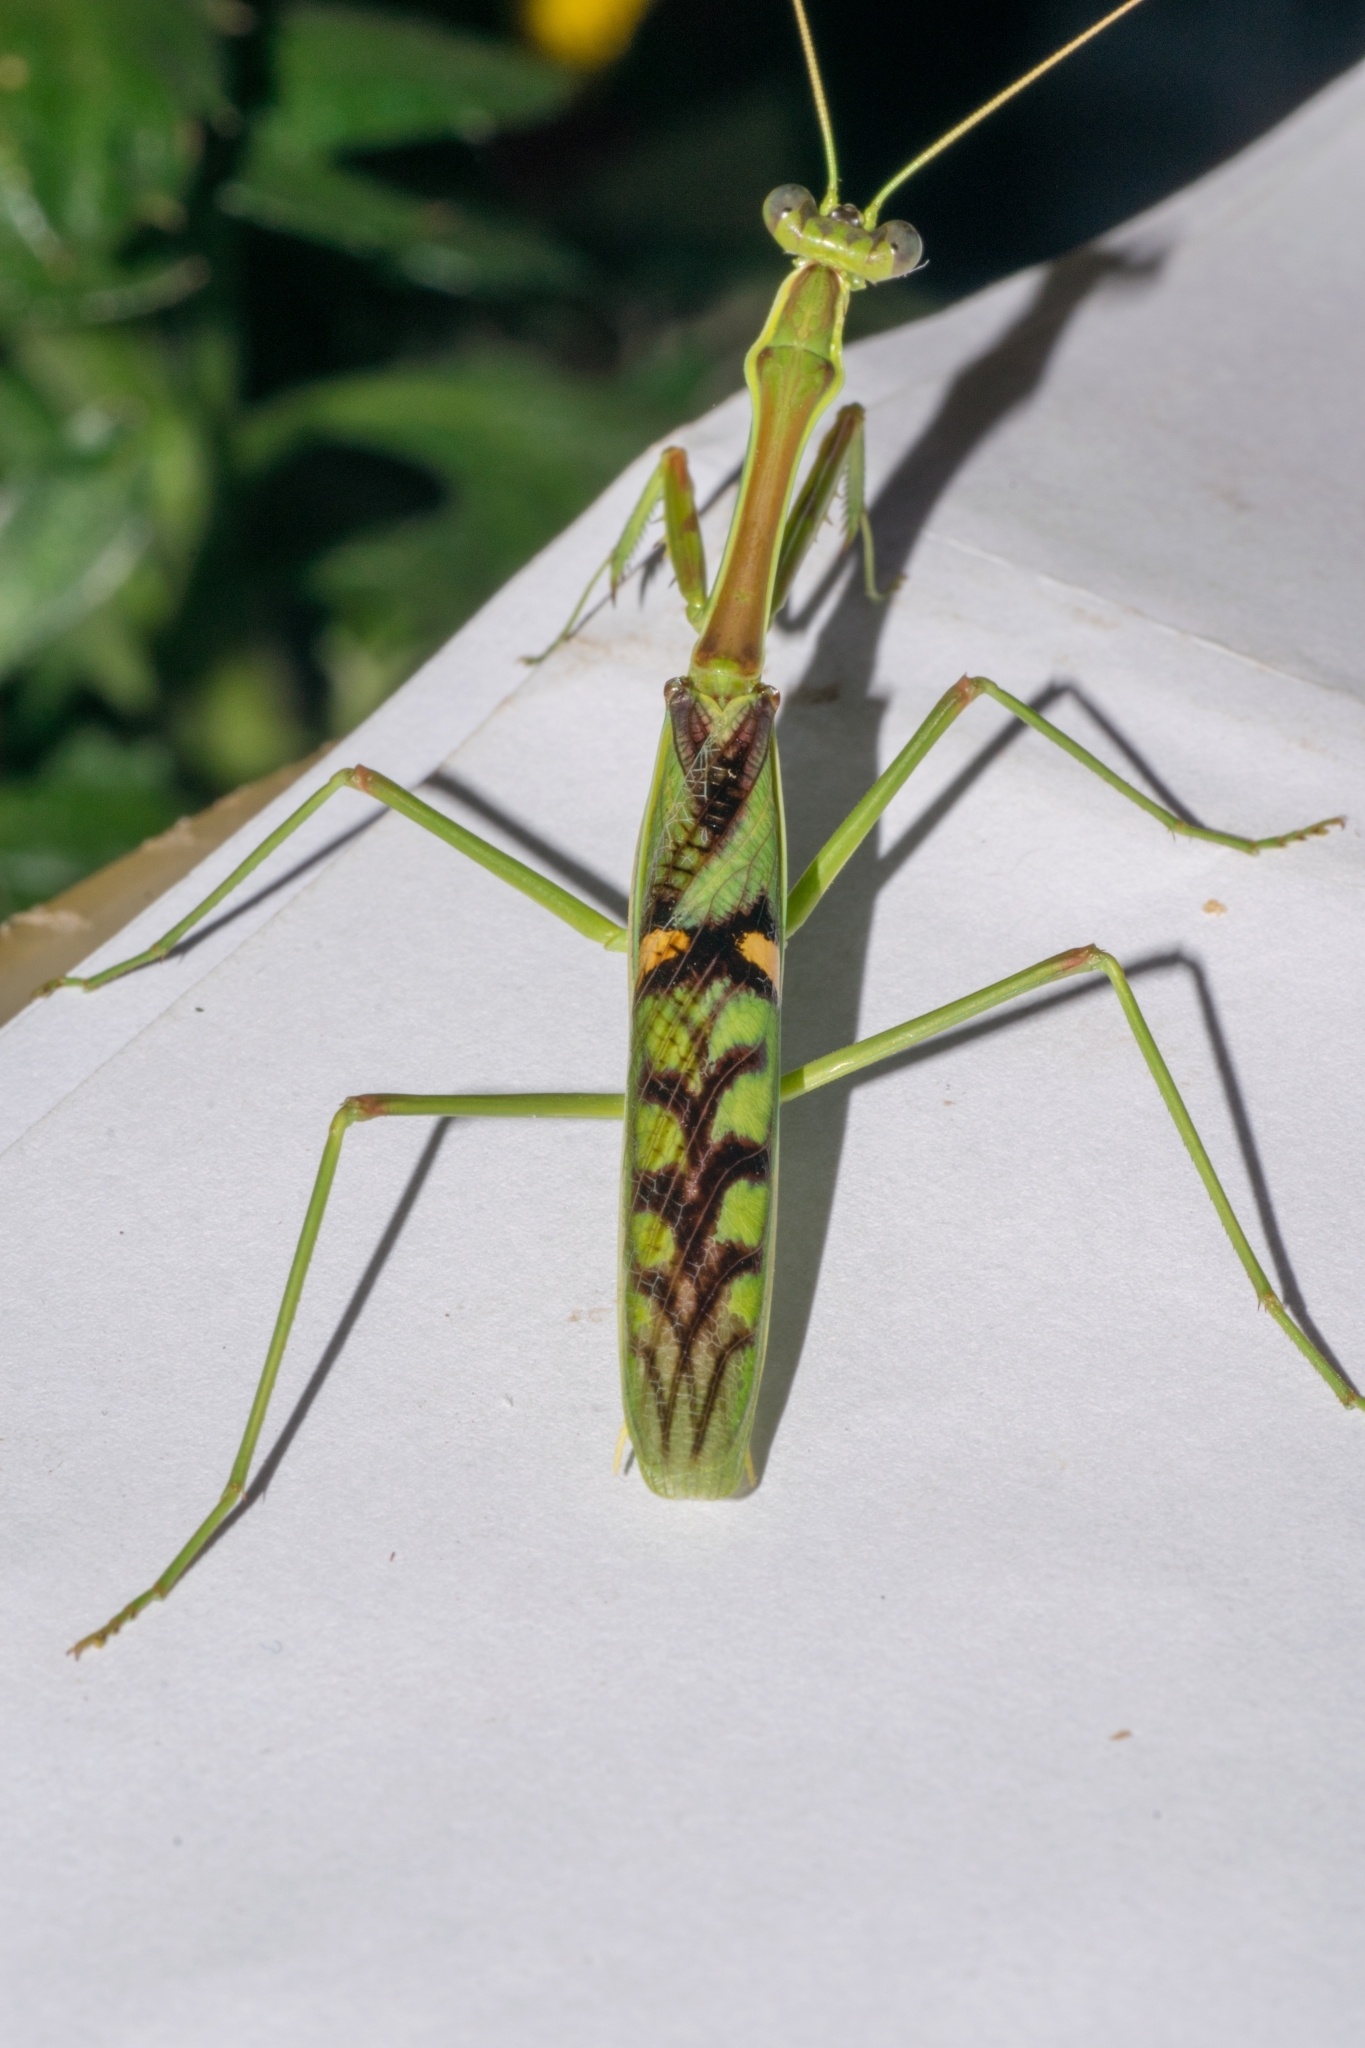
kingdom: Animalia
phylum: Arthropoda
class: Insecta
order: Mantodea
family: Mantidae
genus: Omomantis
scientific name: Omomantis zebrata
